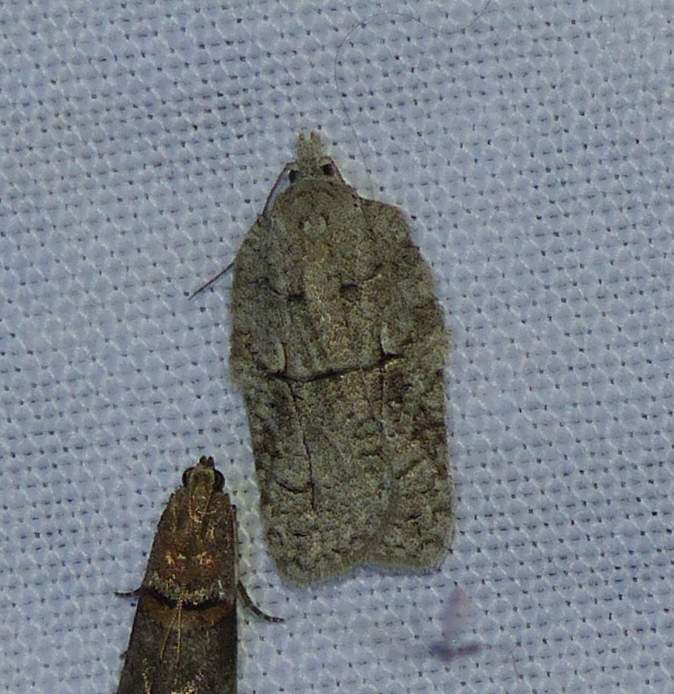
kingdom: Animalia
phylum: Arthropoda
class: Insecta
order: Lepidoptera
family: Tortricidae
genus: Acleris
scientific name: Acleris nigrolinea
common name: Black-lined acleris
